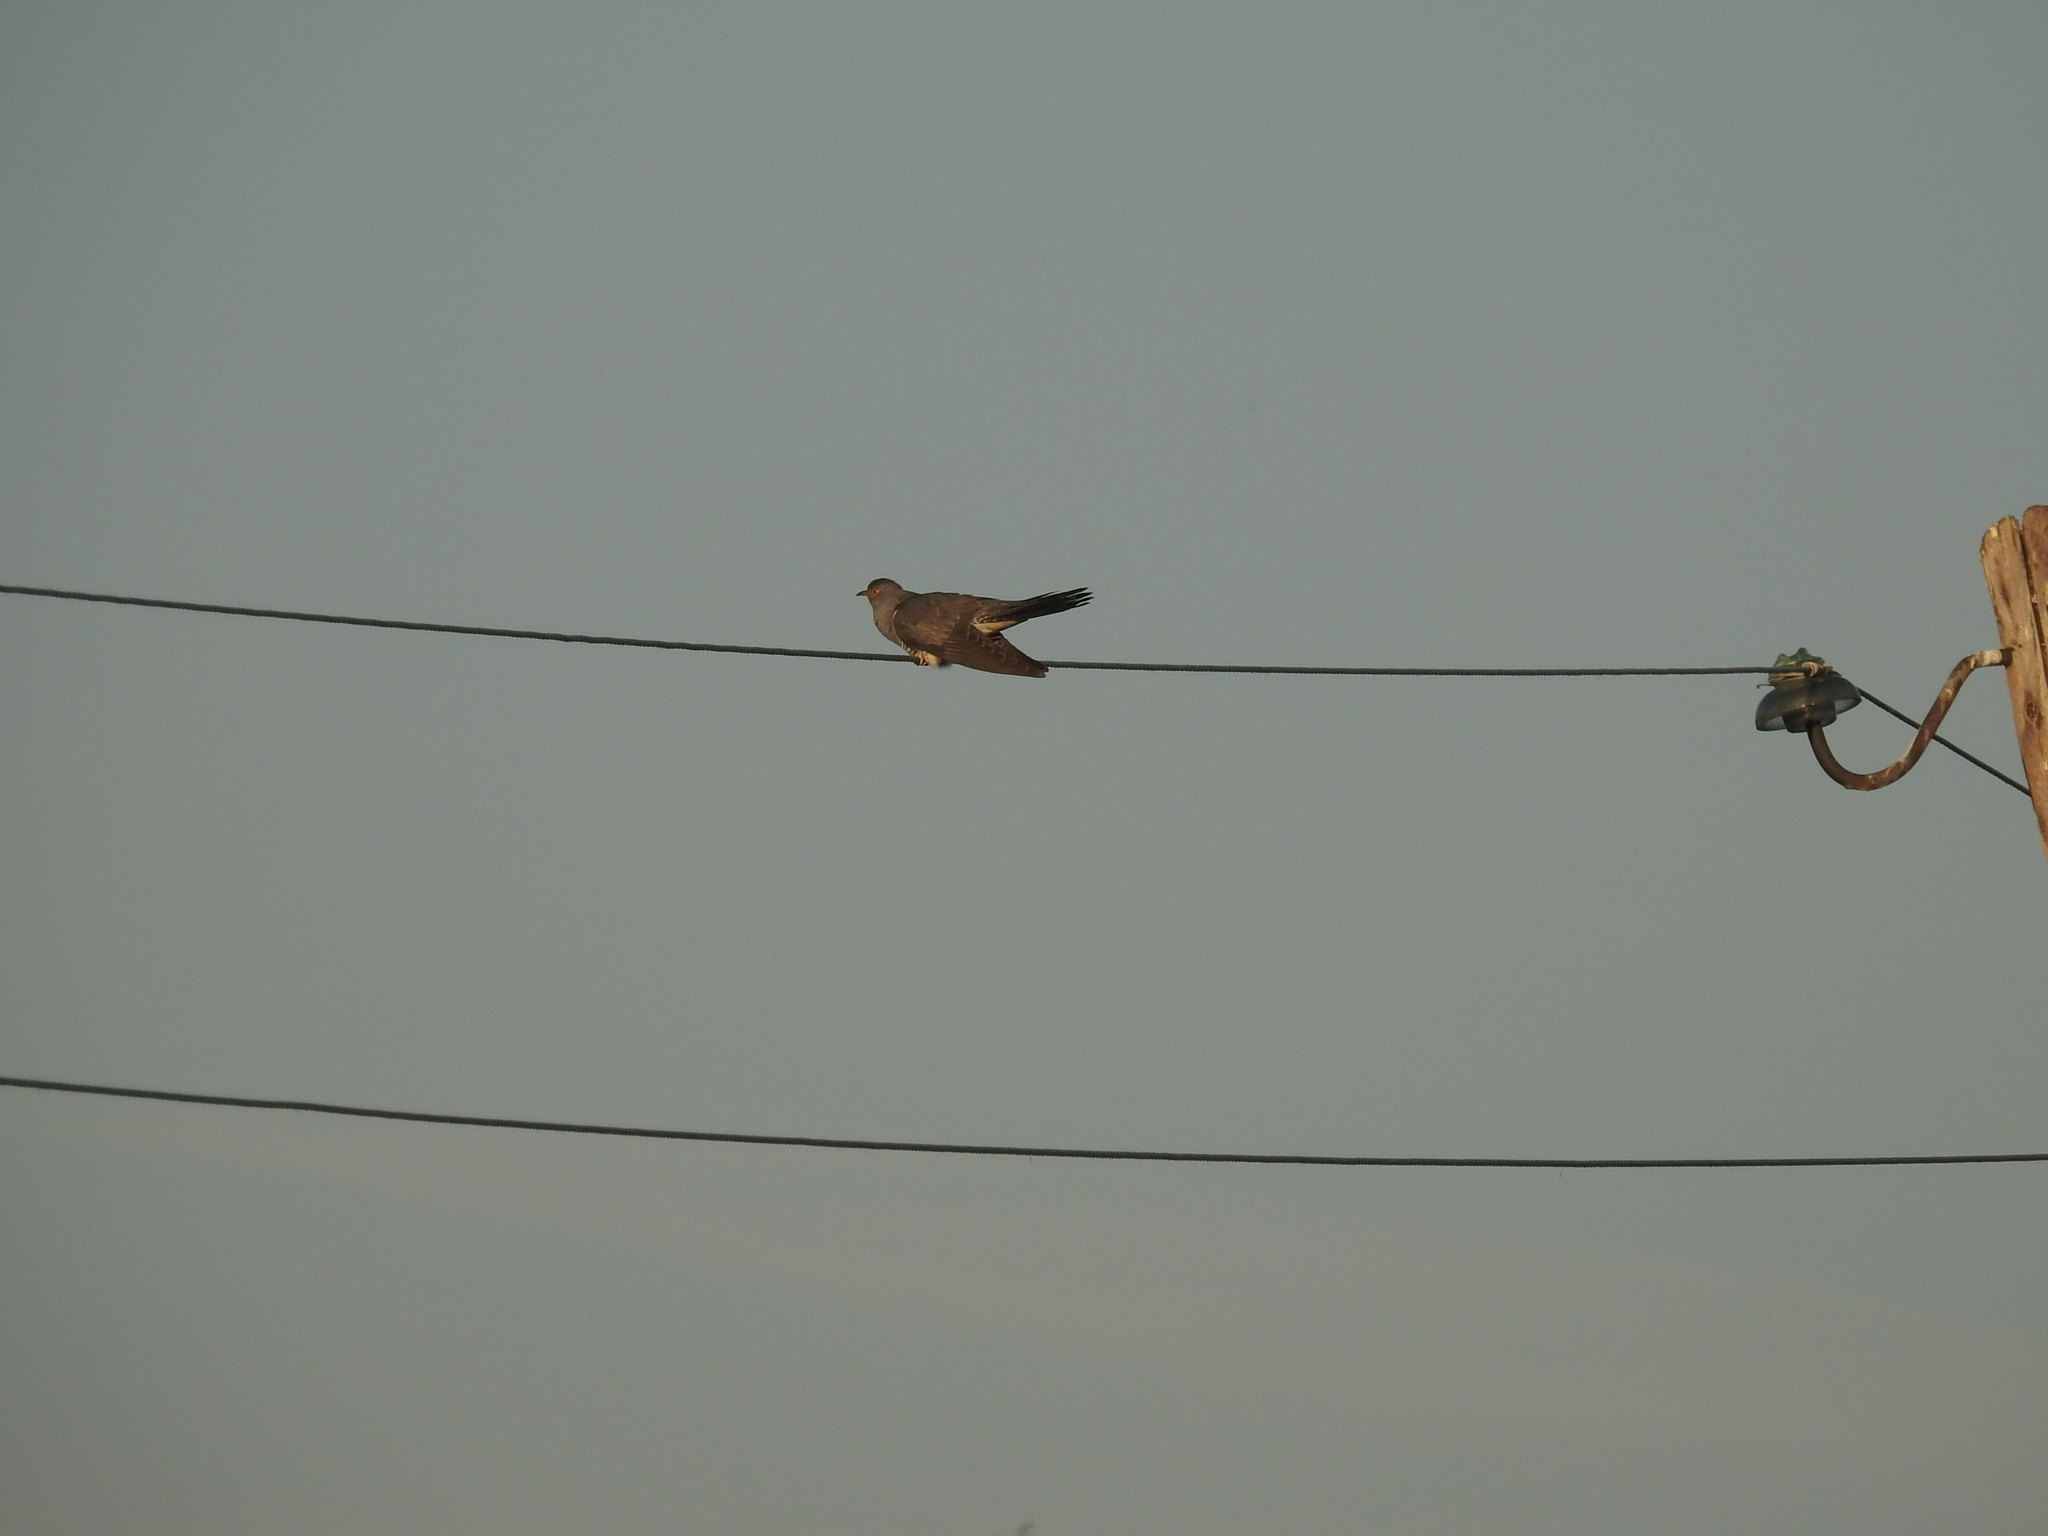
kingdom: Animalia
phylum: Chordata
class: Aves
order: Cuculiformes
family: Cuculidae
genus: Cuculus
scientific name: Cuculus canorus
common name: Common cuckoo
